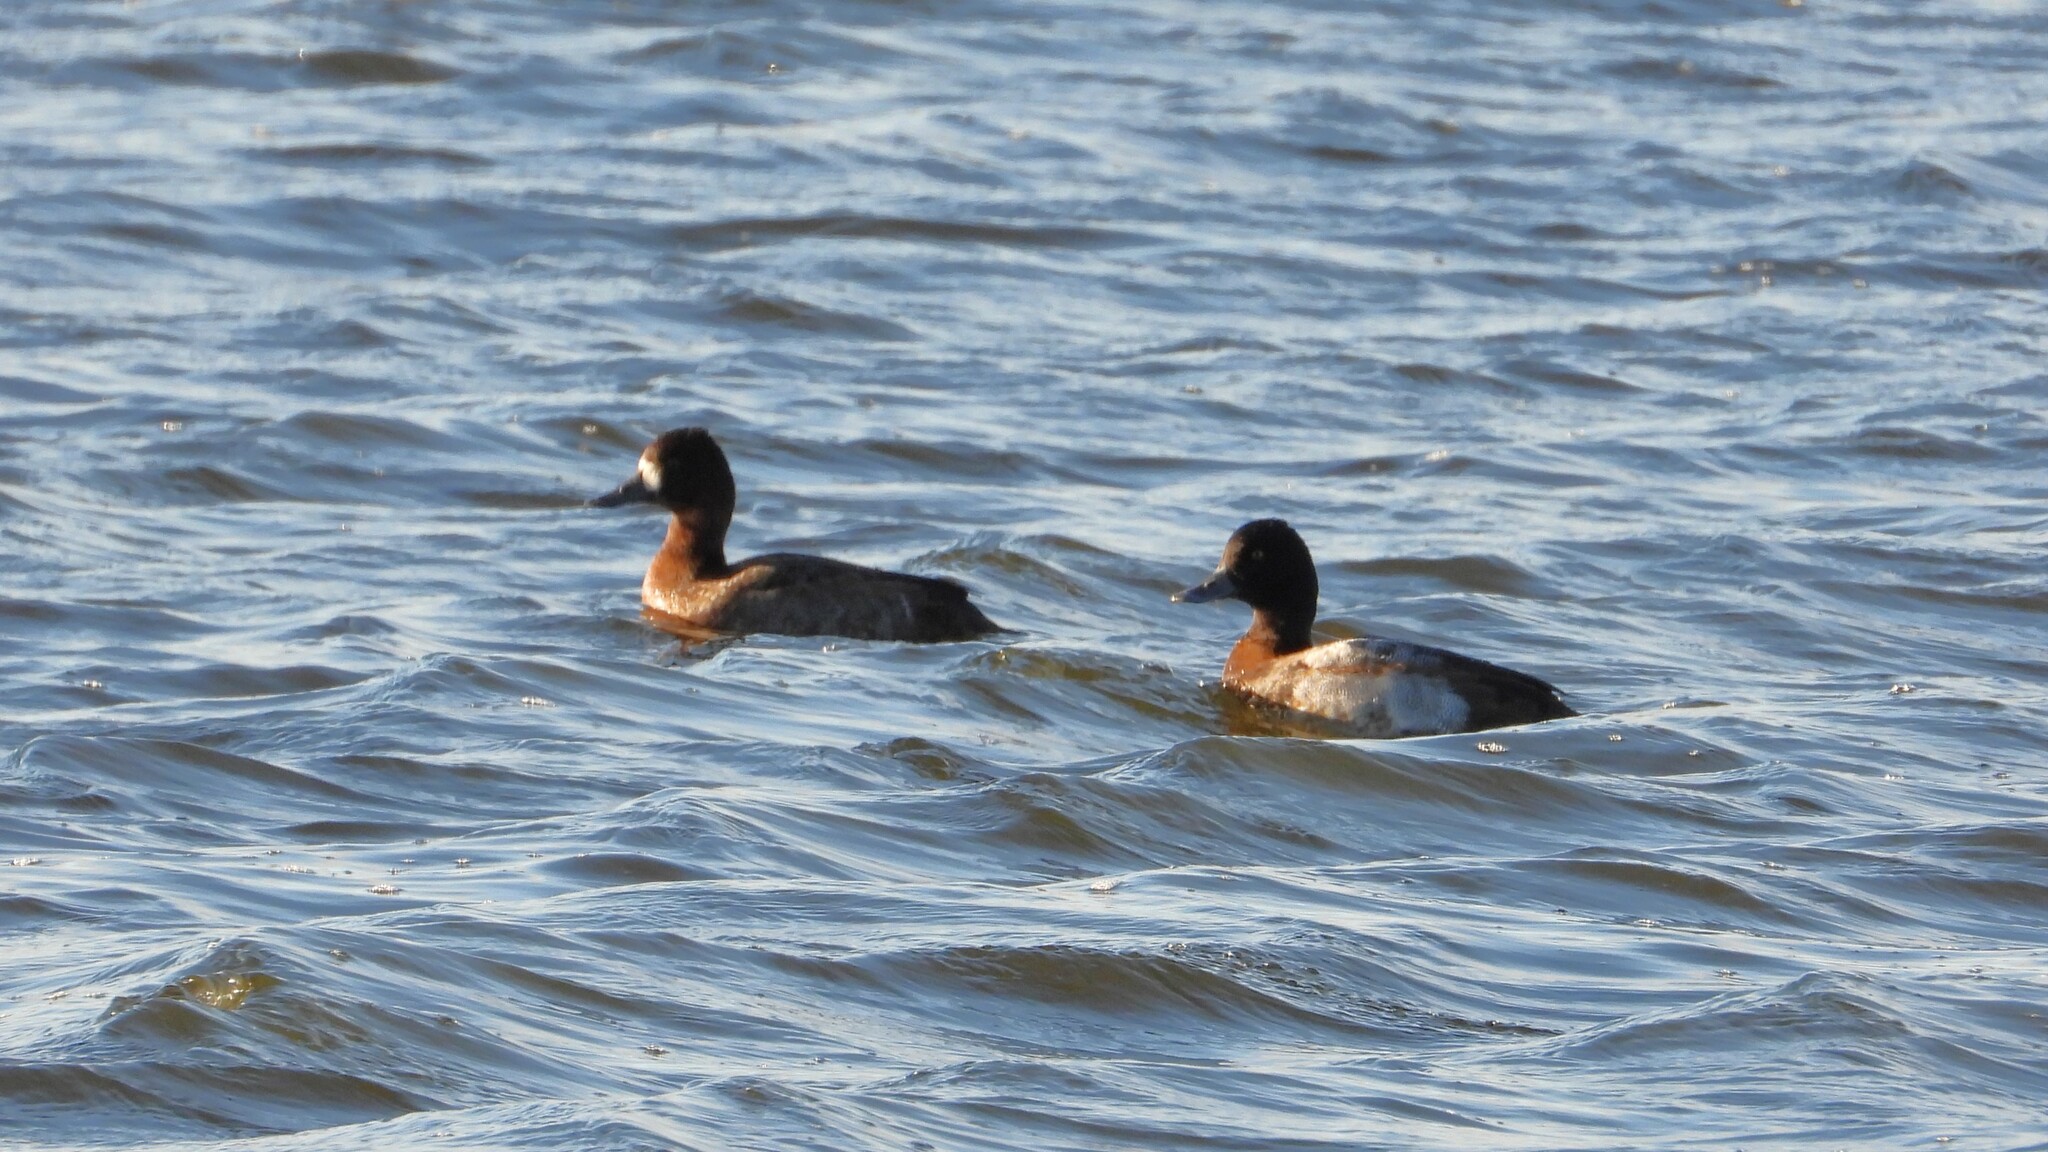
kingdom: Animalia
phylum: Chordata
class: Aves
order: Anseriformes
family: Anatidae
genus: Aythya
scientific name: Aythya affinis
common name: Lesser scaup
